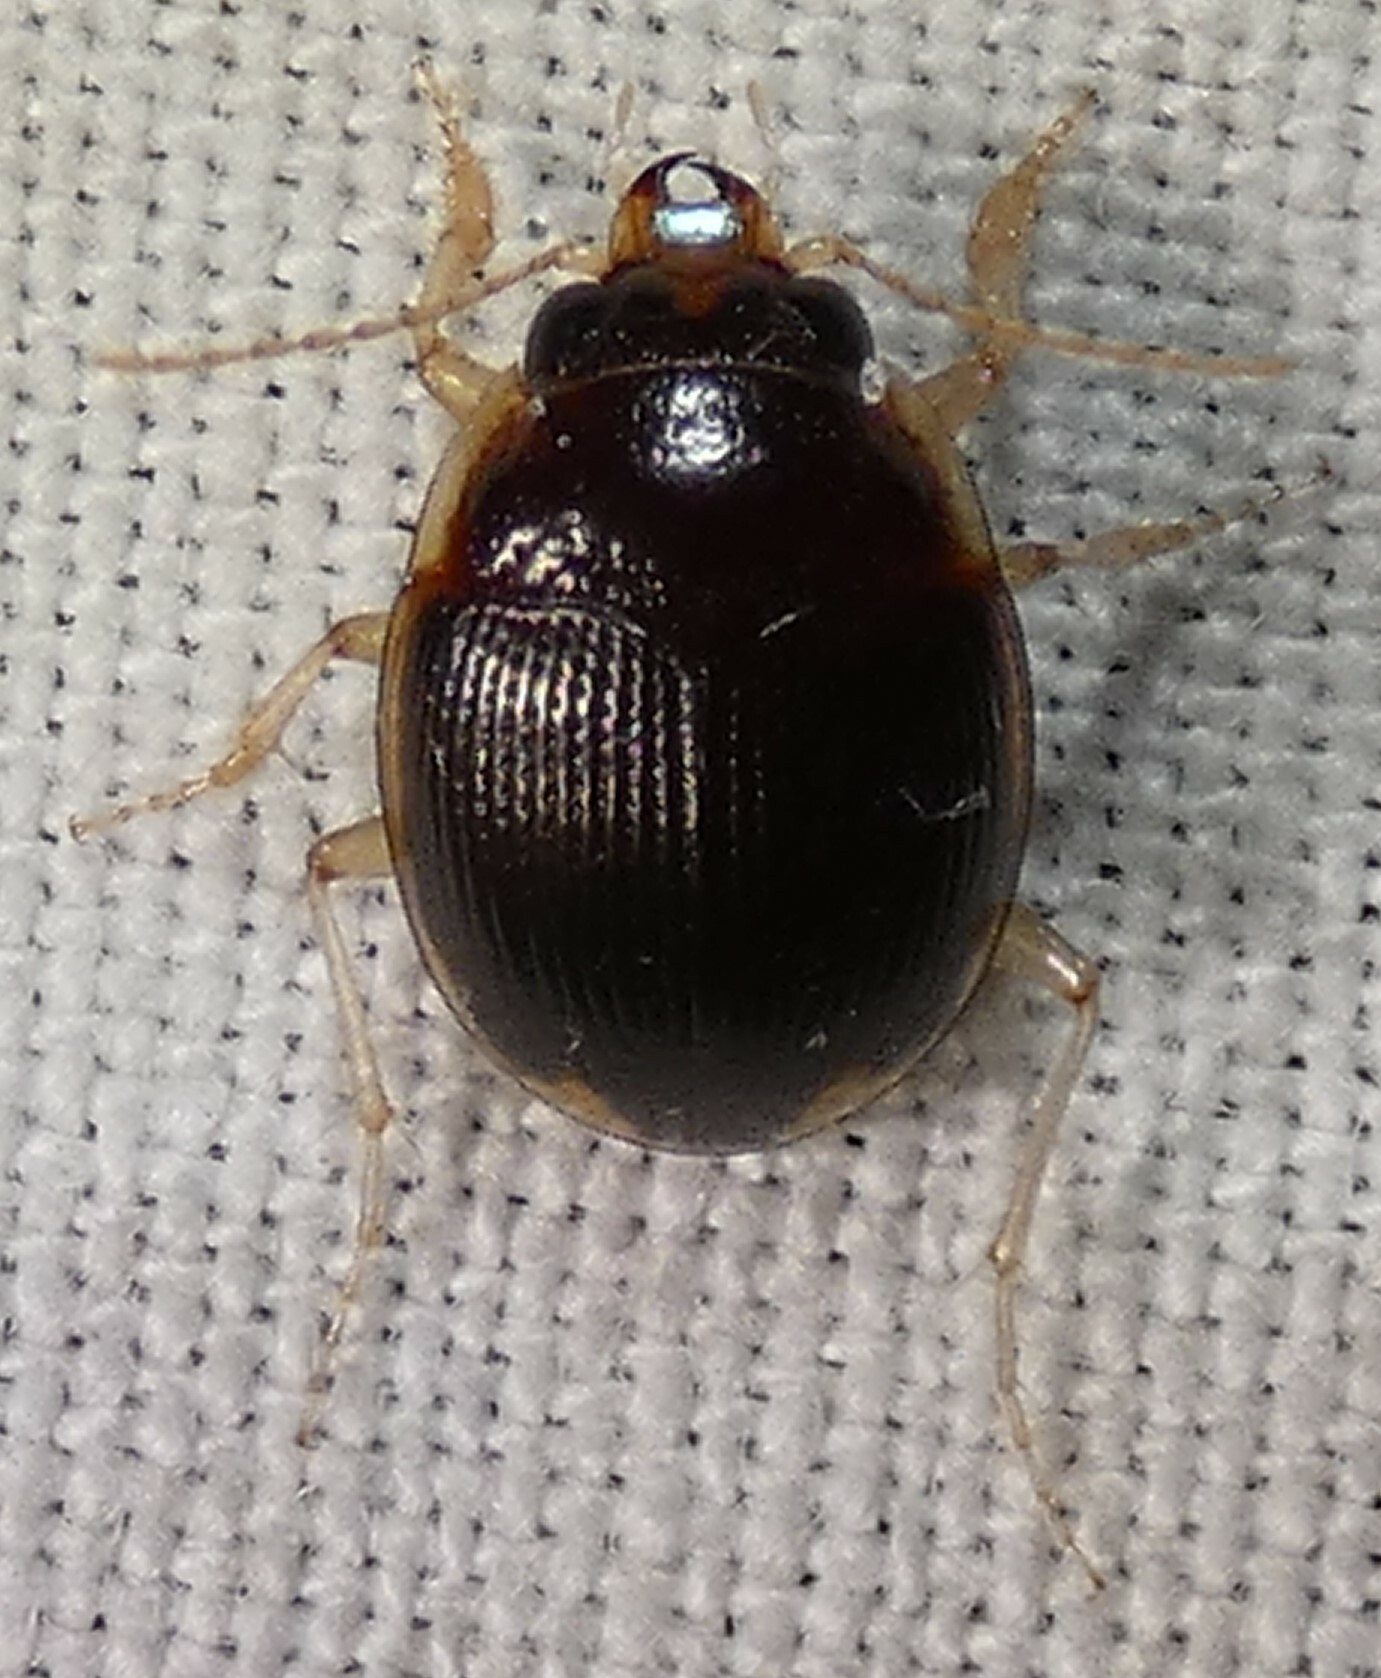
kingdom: Animalia
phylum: Arthropoda
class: Insecta
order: Coleoptera
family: Carabidae
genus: Omophron
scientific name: Omophron labiatum
